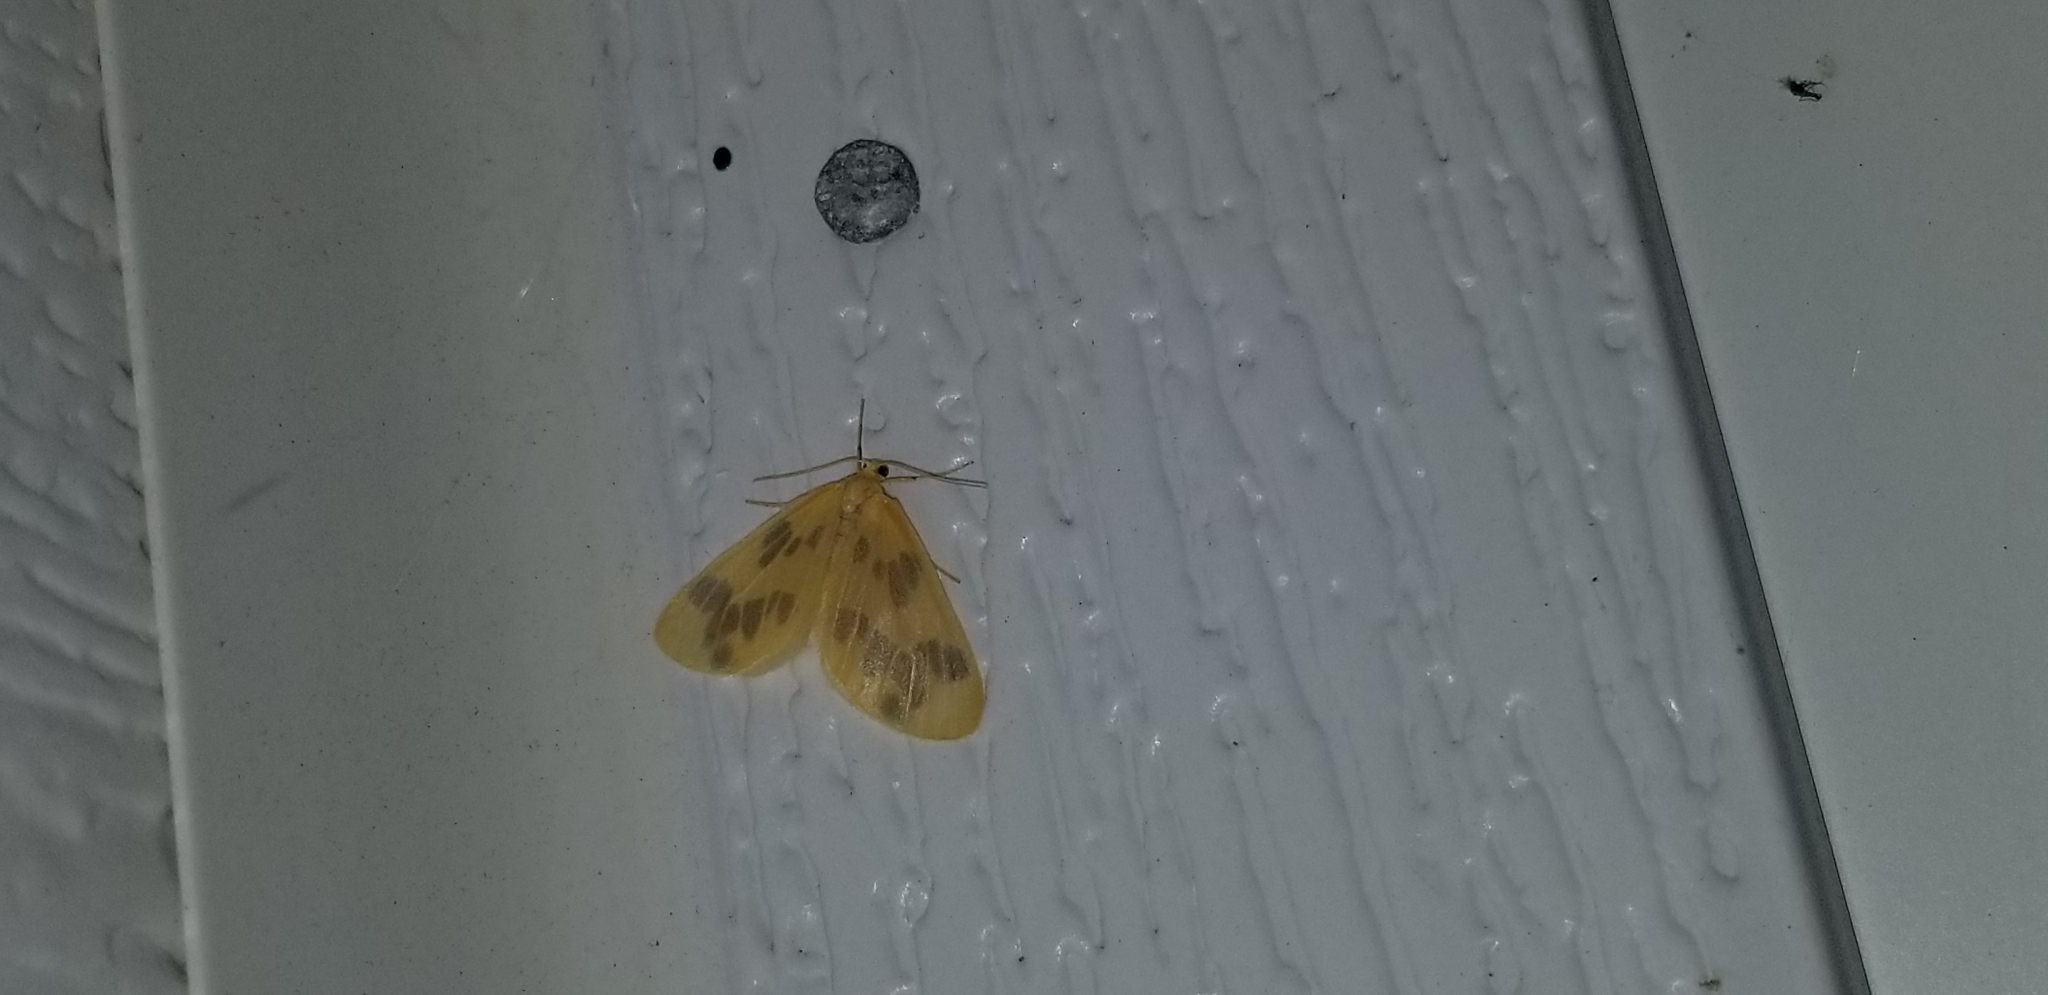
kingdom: Animalia
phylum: Arthropoda
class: Insecta
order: Lepidoptera
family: Geometridae
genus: Eubaphe
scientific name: Eubaphe mendica
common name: Beggar
